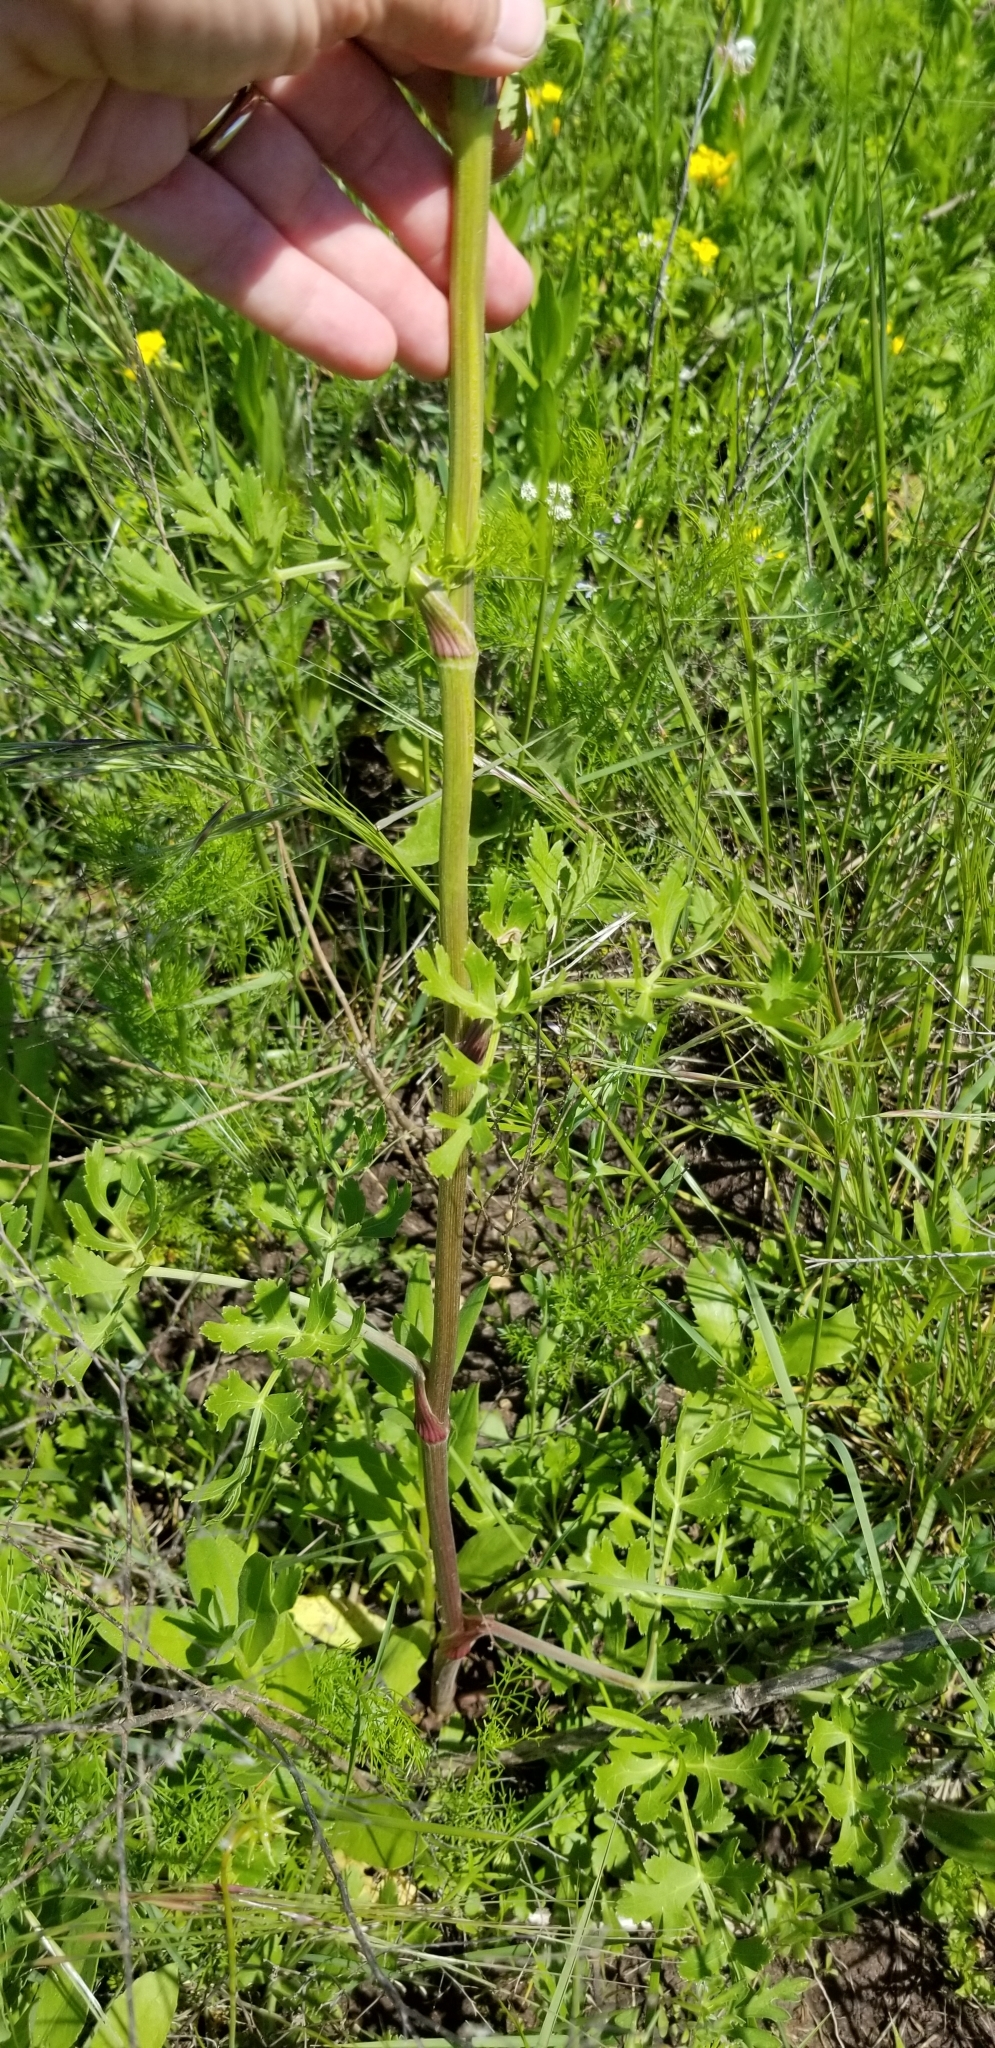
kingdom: Plantae
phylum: Tracheophyta
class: Magnoliopsida
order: Apiales
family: Apiaceae
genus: Polytaenia
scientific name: Polytaenia texana
